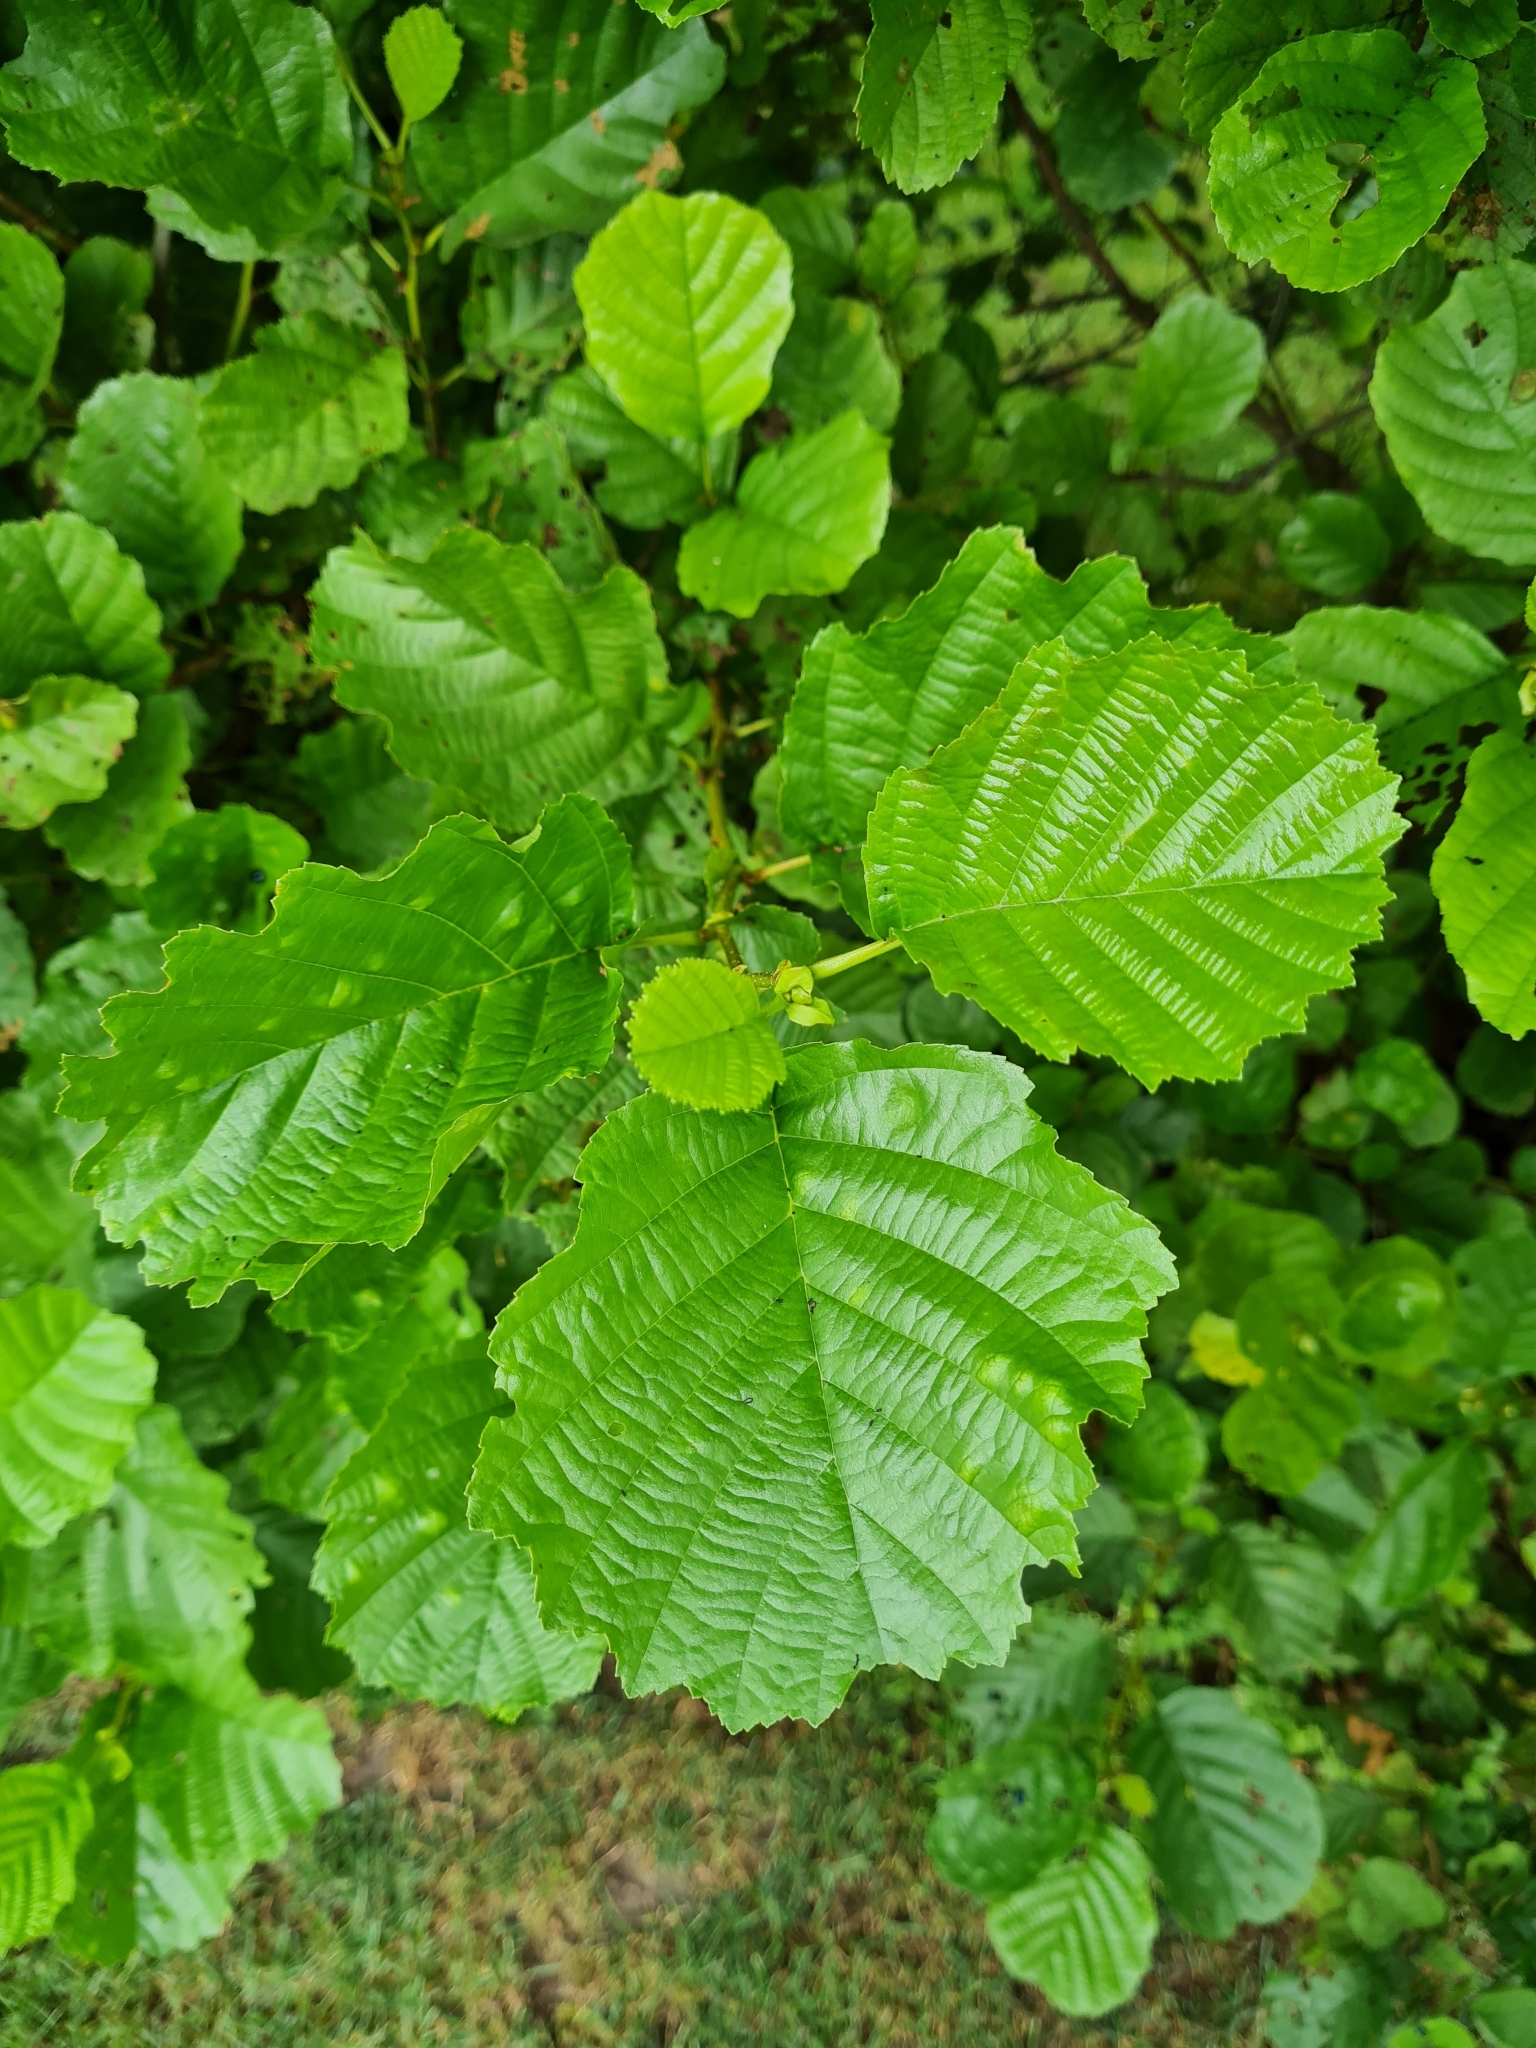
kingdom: Plantae
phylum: Tracheophyta
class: Magnoliopsida
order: Fagales
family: Betulaceae
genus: Alnus
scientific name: Alnus glutinosa
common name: Black alder
